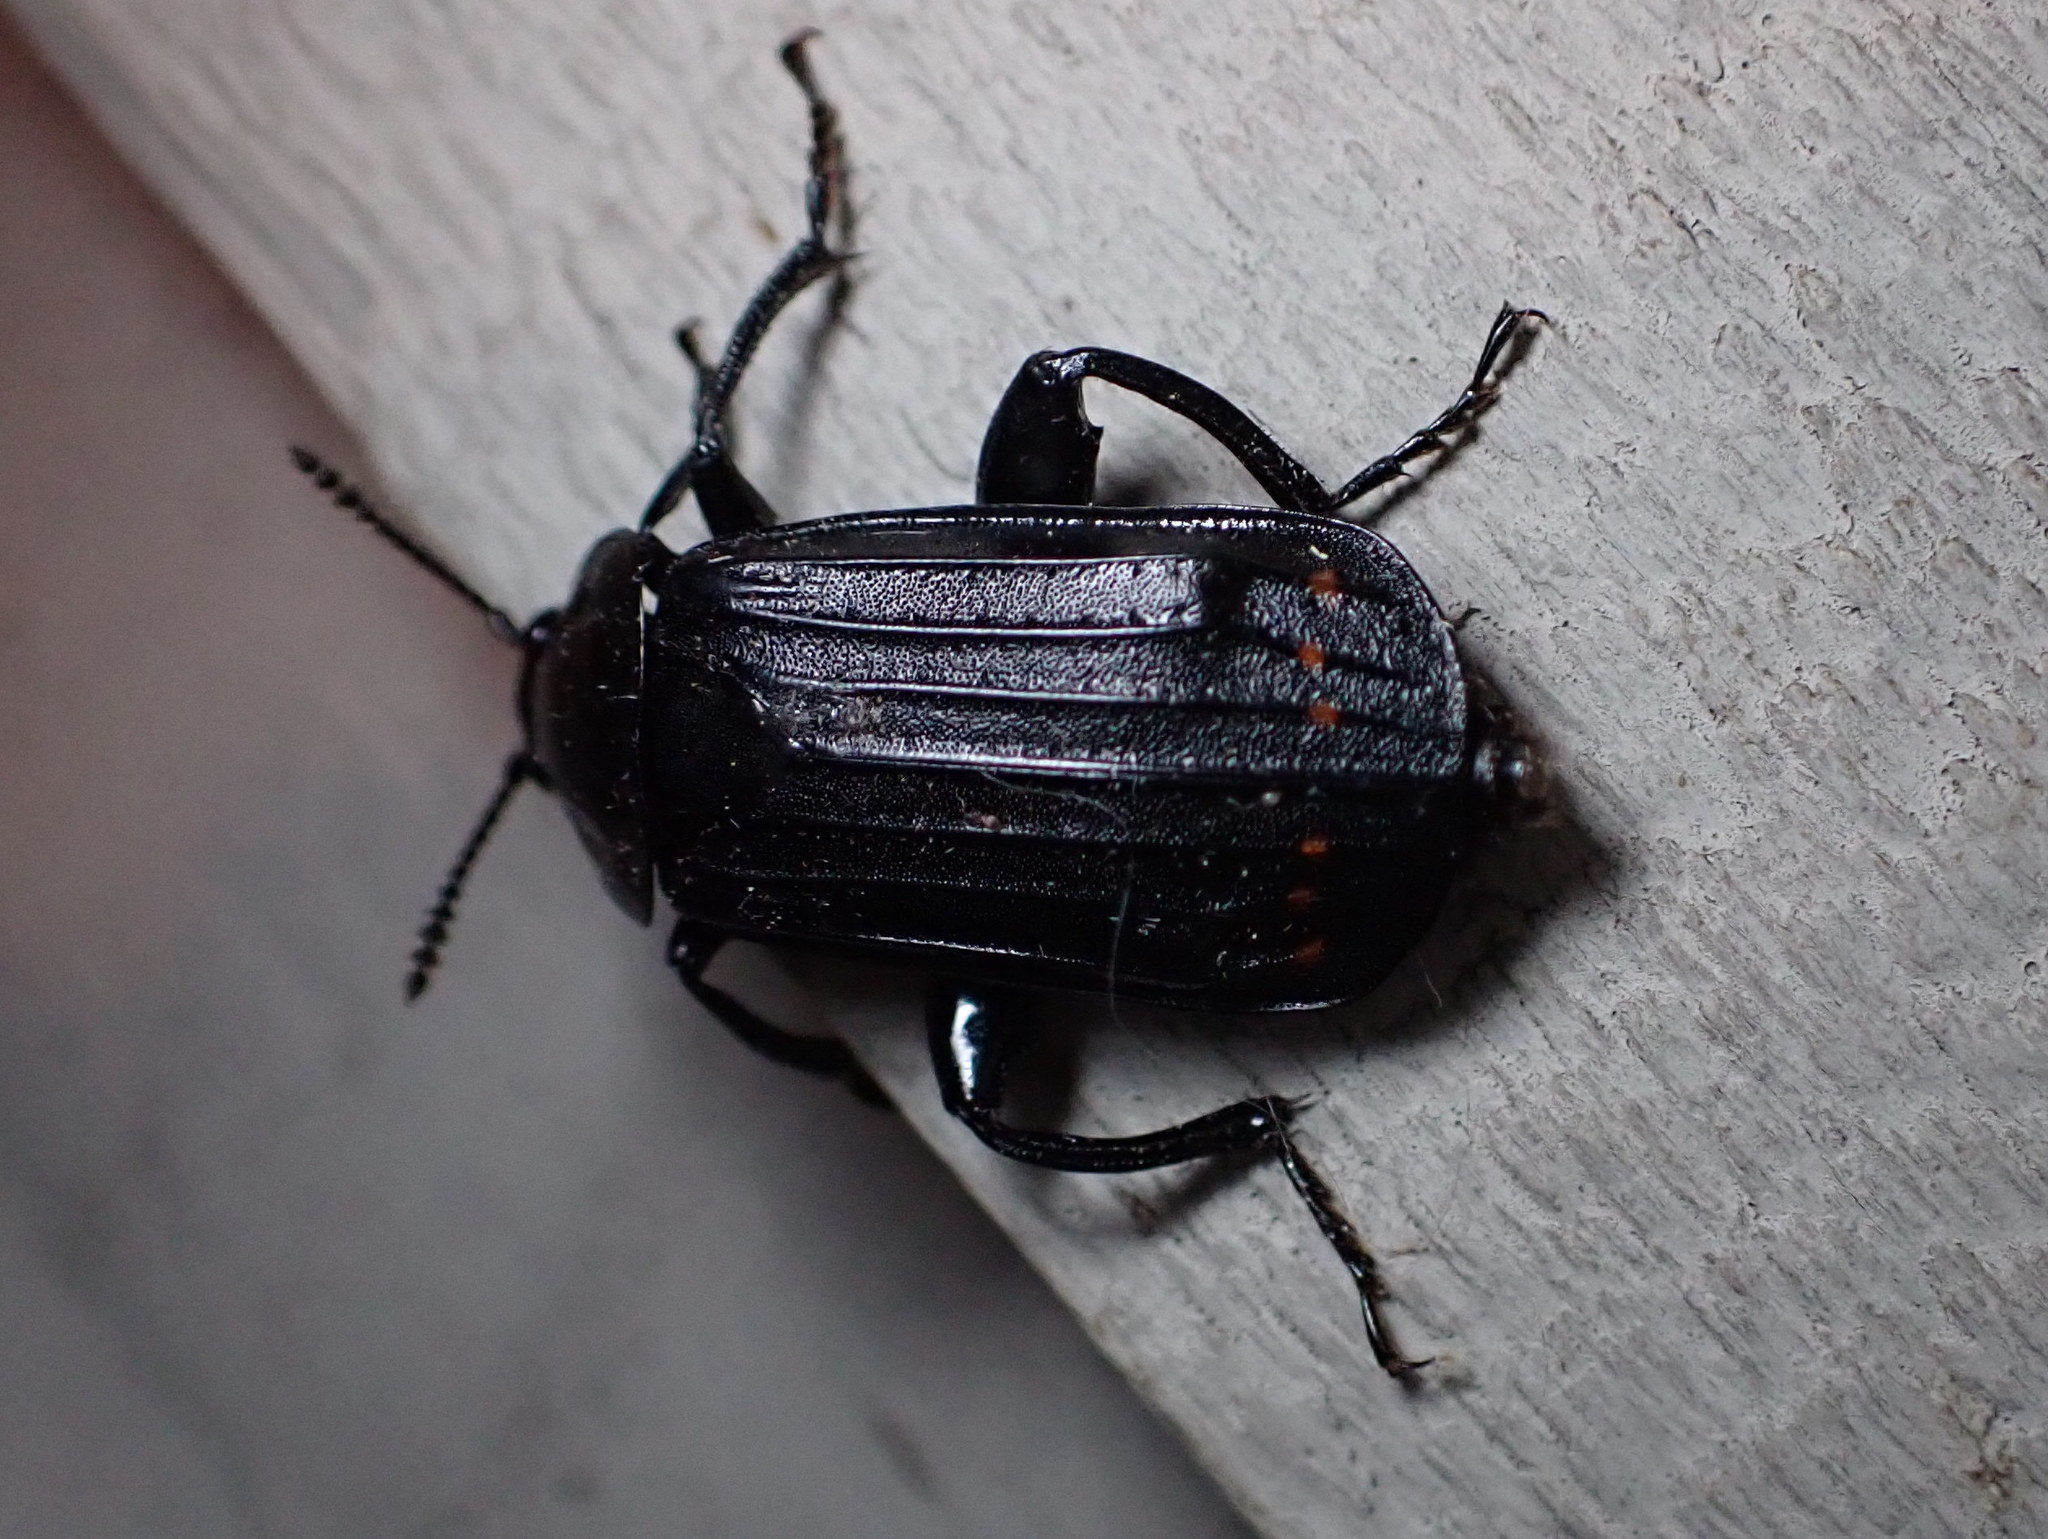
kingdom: Animalia
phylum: Arthropoda
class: Insecta
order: Coleoptera
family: Staphylinidae
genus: Necrodes
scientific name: Necrodes surinamensis
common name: Red-lined carrion beetle
